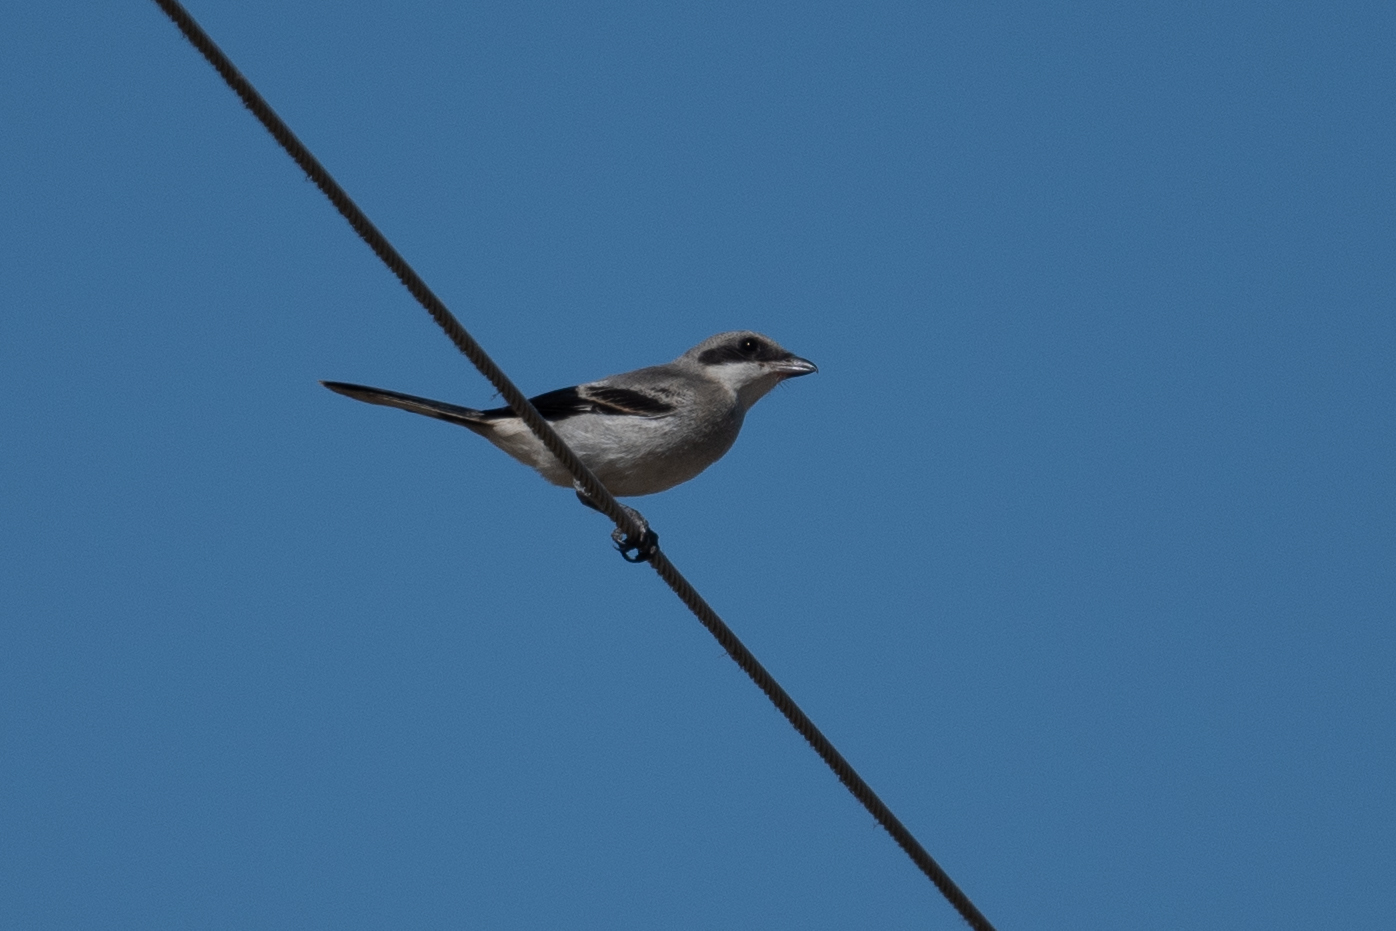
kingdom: Animalia
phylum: Chordata
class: Aves
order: Passeriformes
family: Laniidae
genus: Lanius
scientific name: Lanius ludovicianus
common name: Loggerhead shrike
